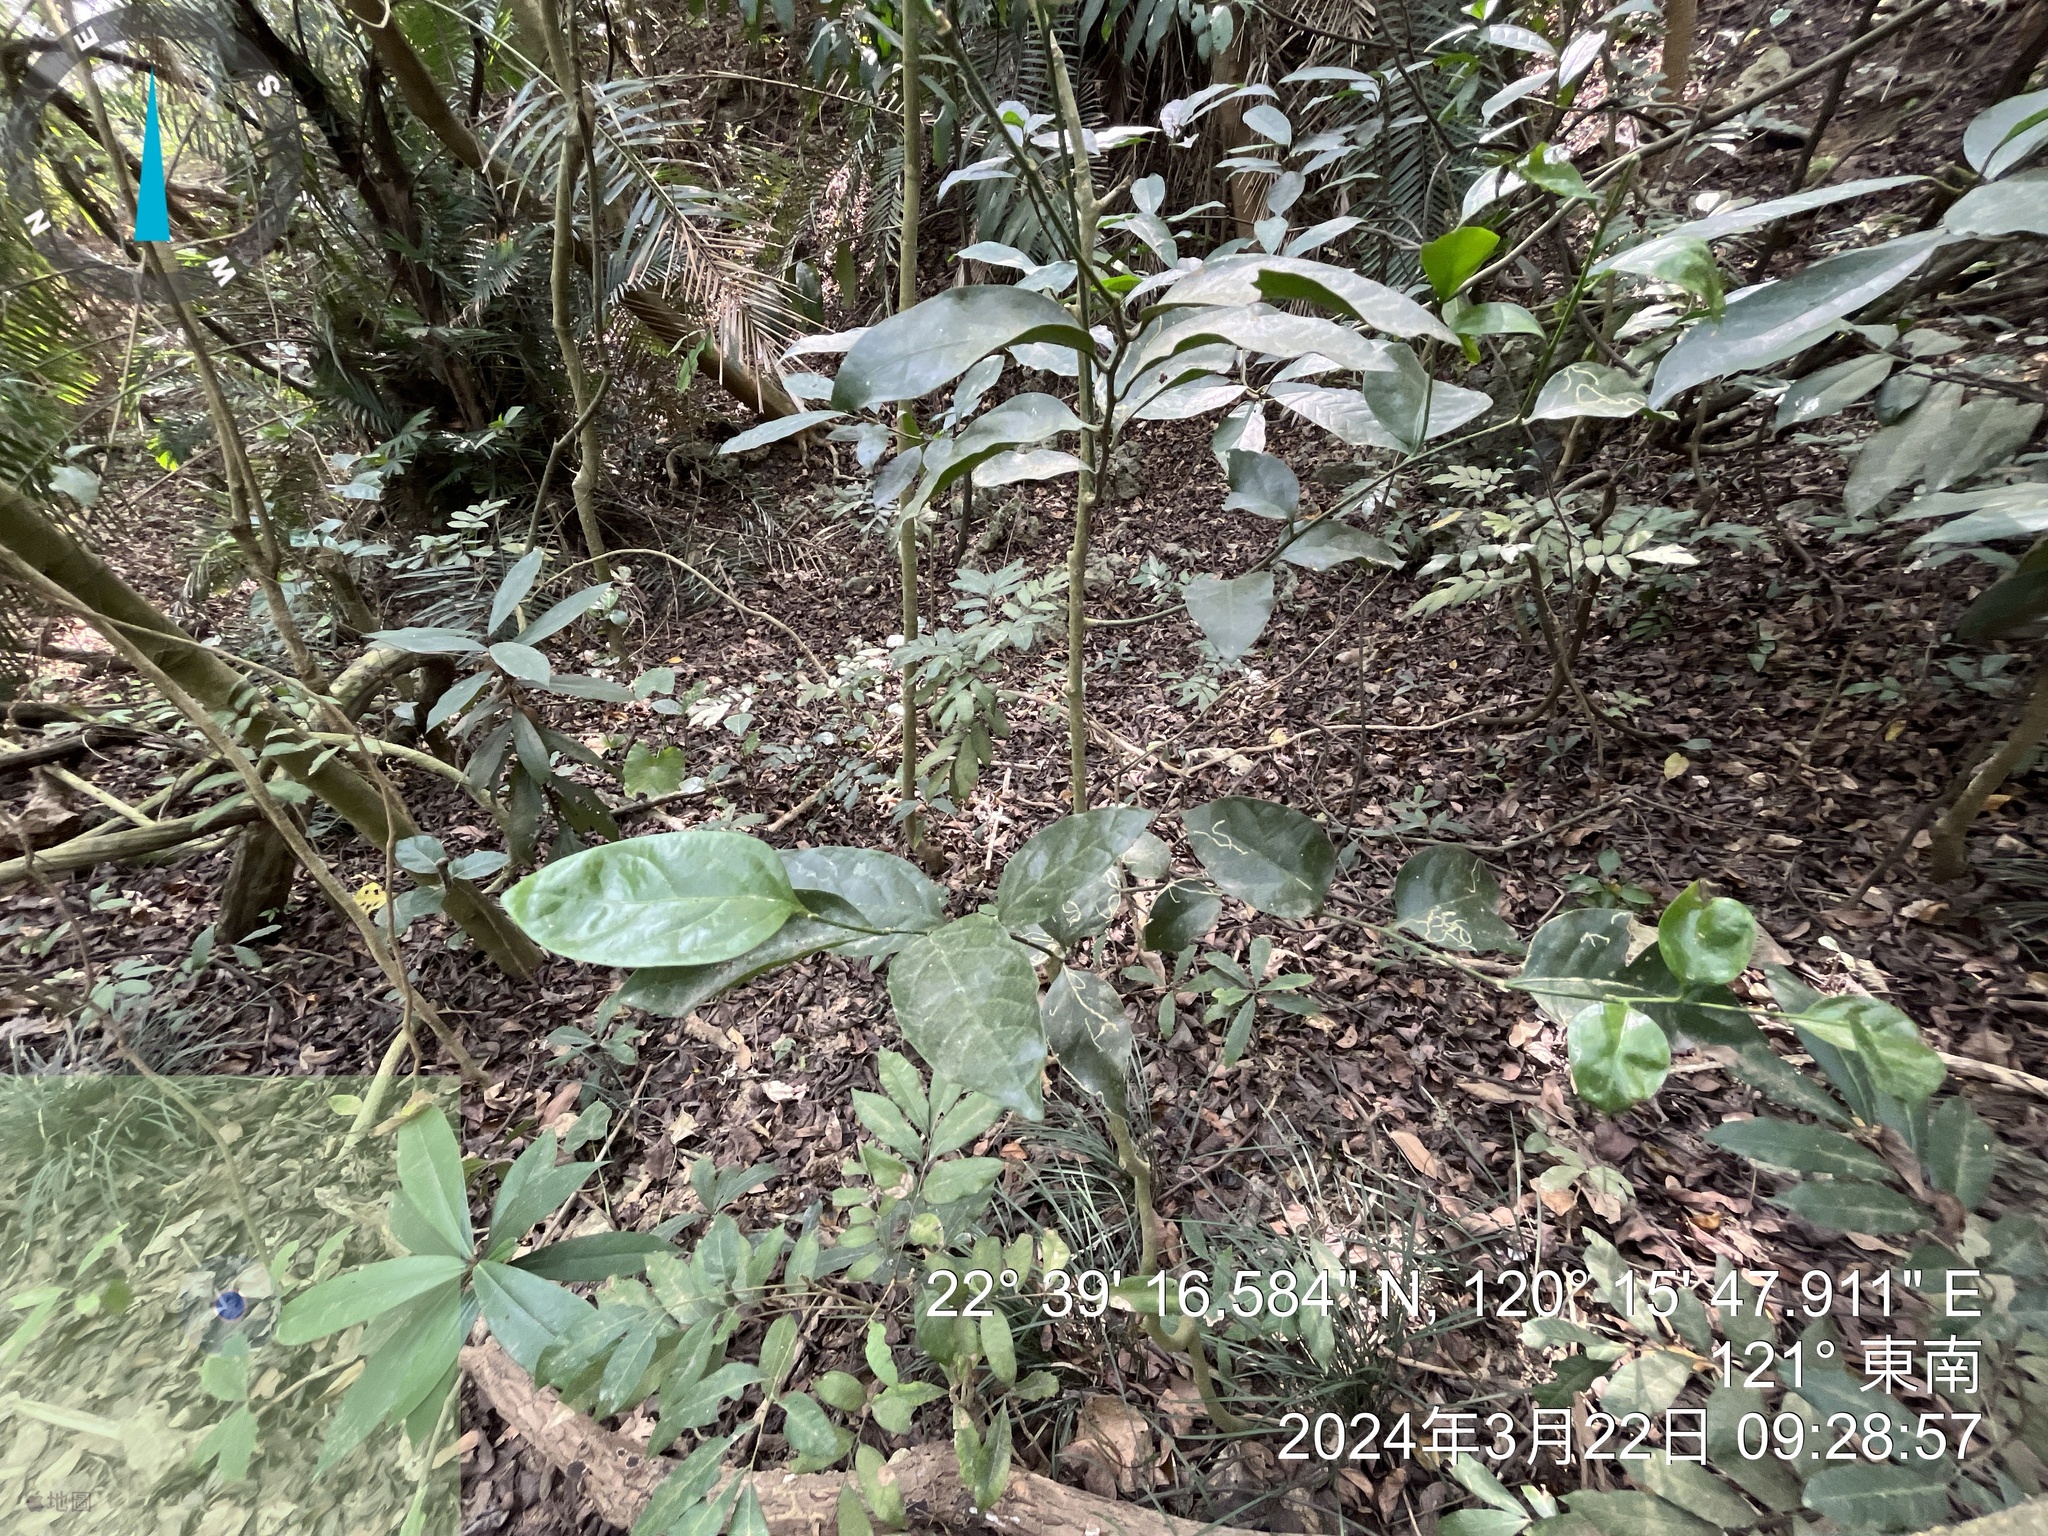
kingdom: Plantae
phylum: Tracheophyta
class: Magnoliopsida
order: Santalales
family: Opiliaceae
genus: Champereia
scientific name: Champereia manillana
